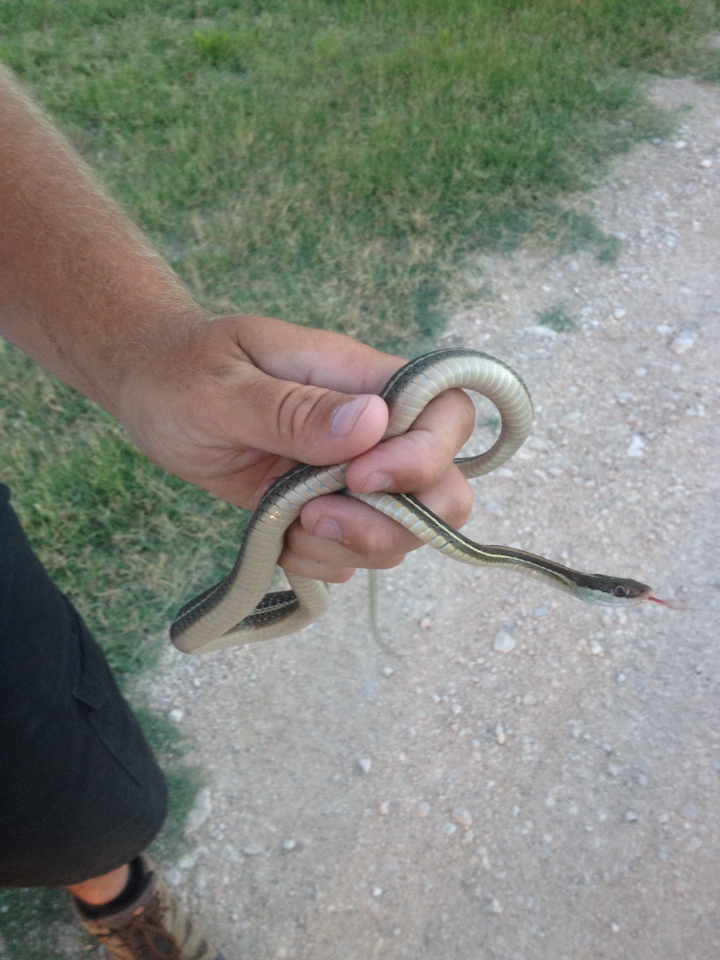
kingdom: Animalia
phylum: Chordata
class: Squamata
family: Colubridae
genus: Thamnophis
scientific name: Thamnophis proximus
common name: Western ribbon snake
